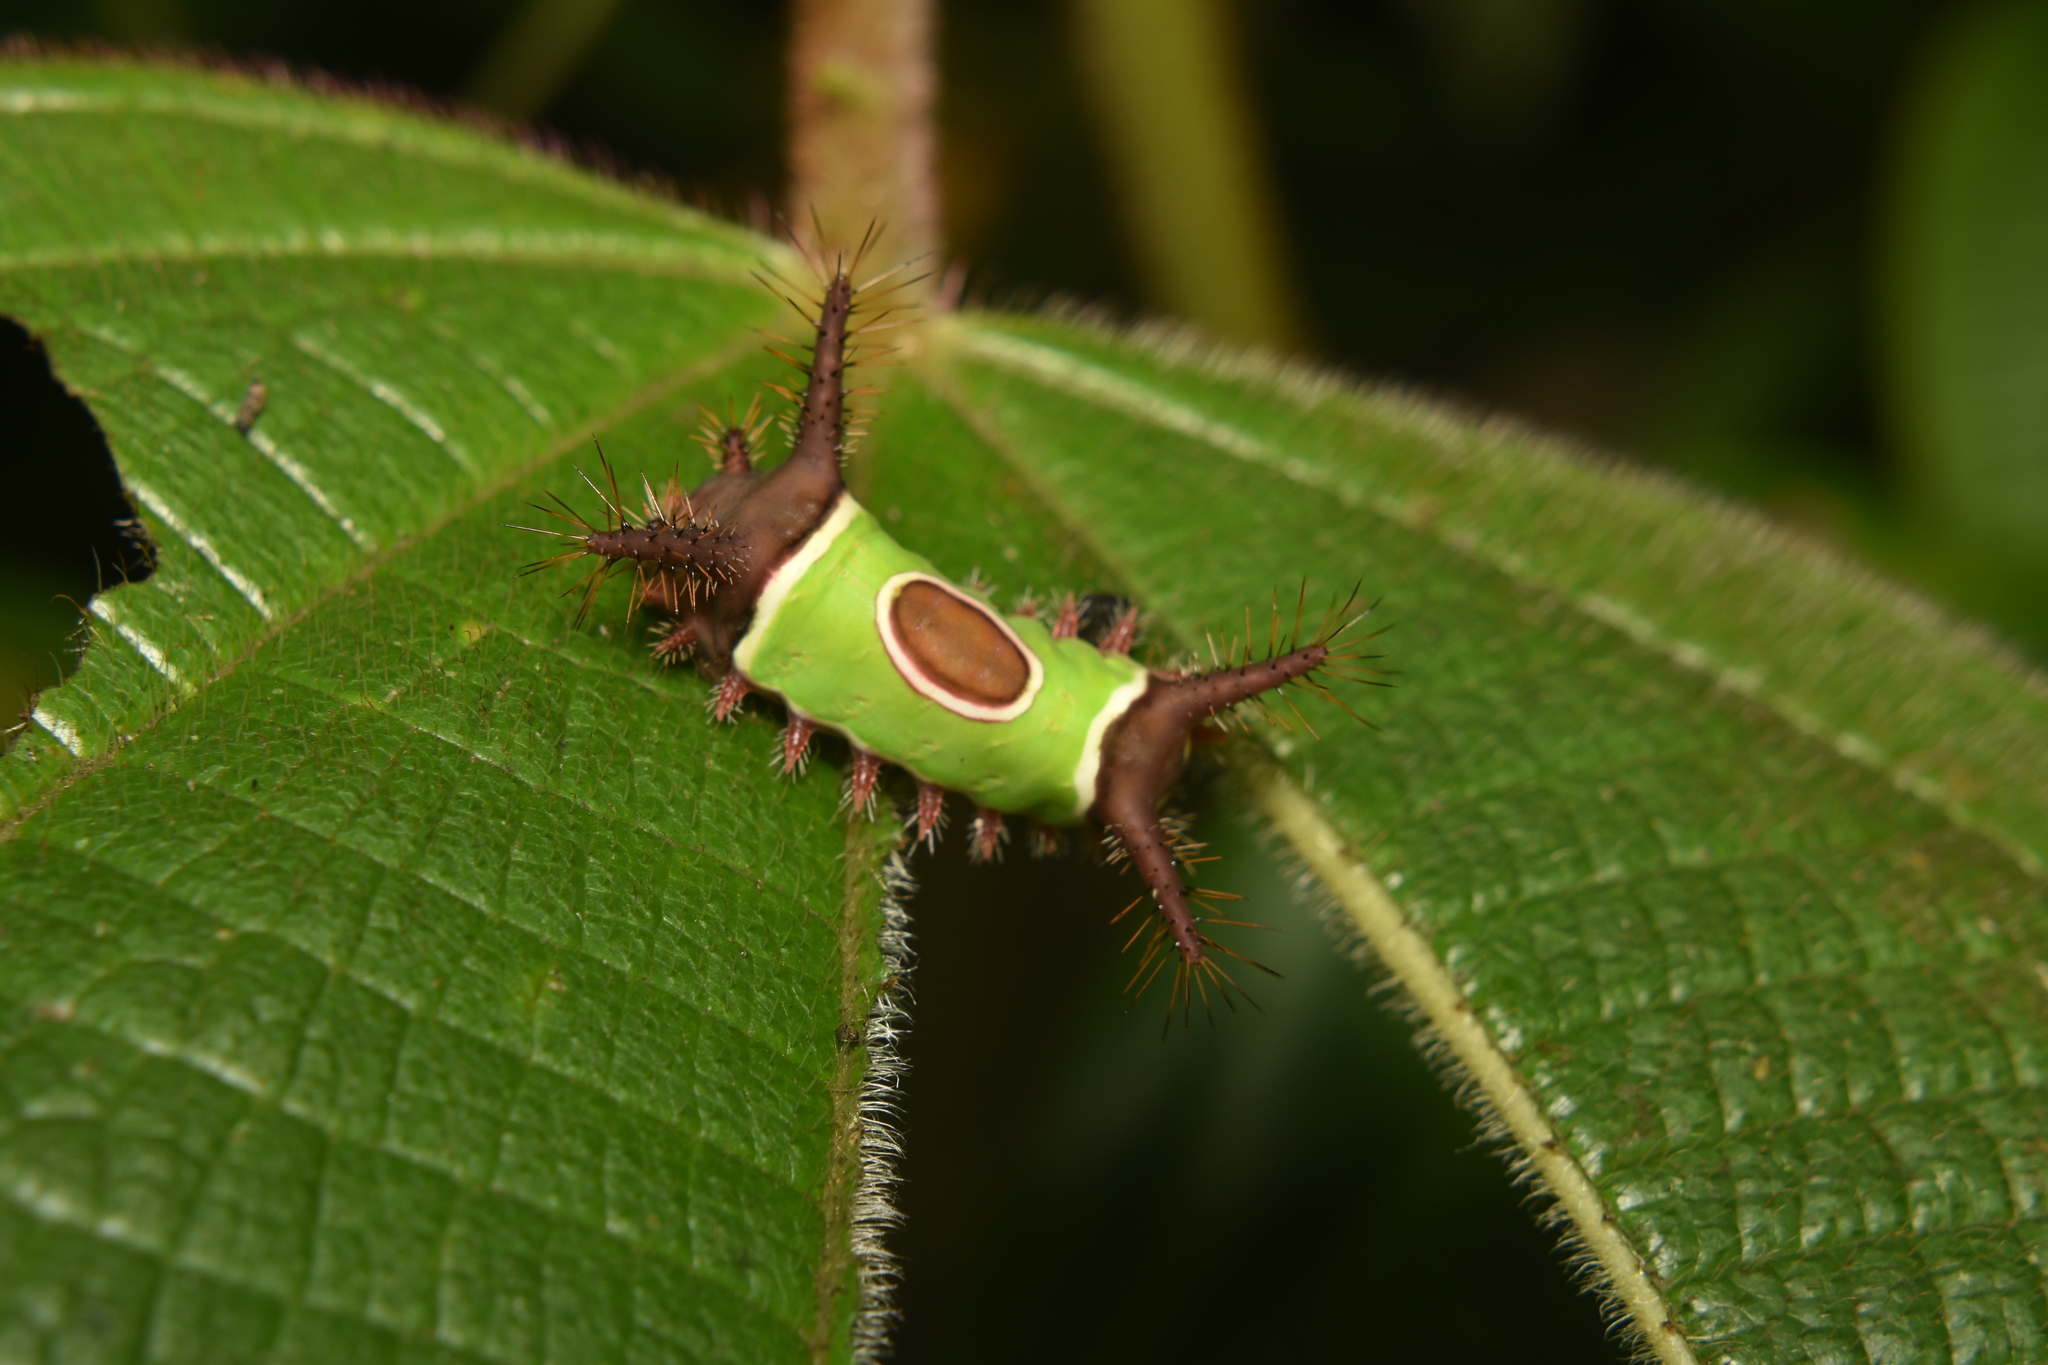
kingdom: Animalia
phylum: Arthropoda
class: Insecta
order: Lepidoptera
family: Limacodidae
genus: Acharia
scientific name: Acharia hyperoche
